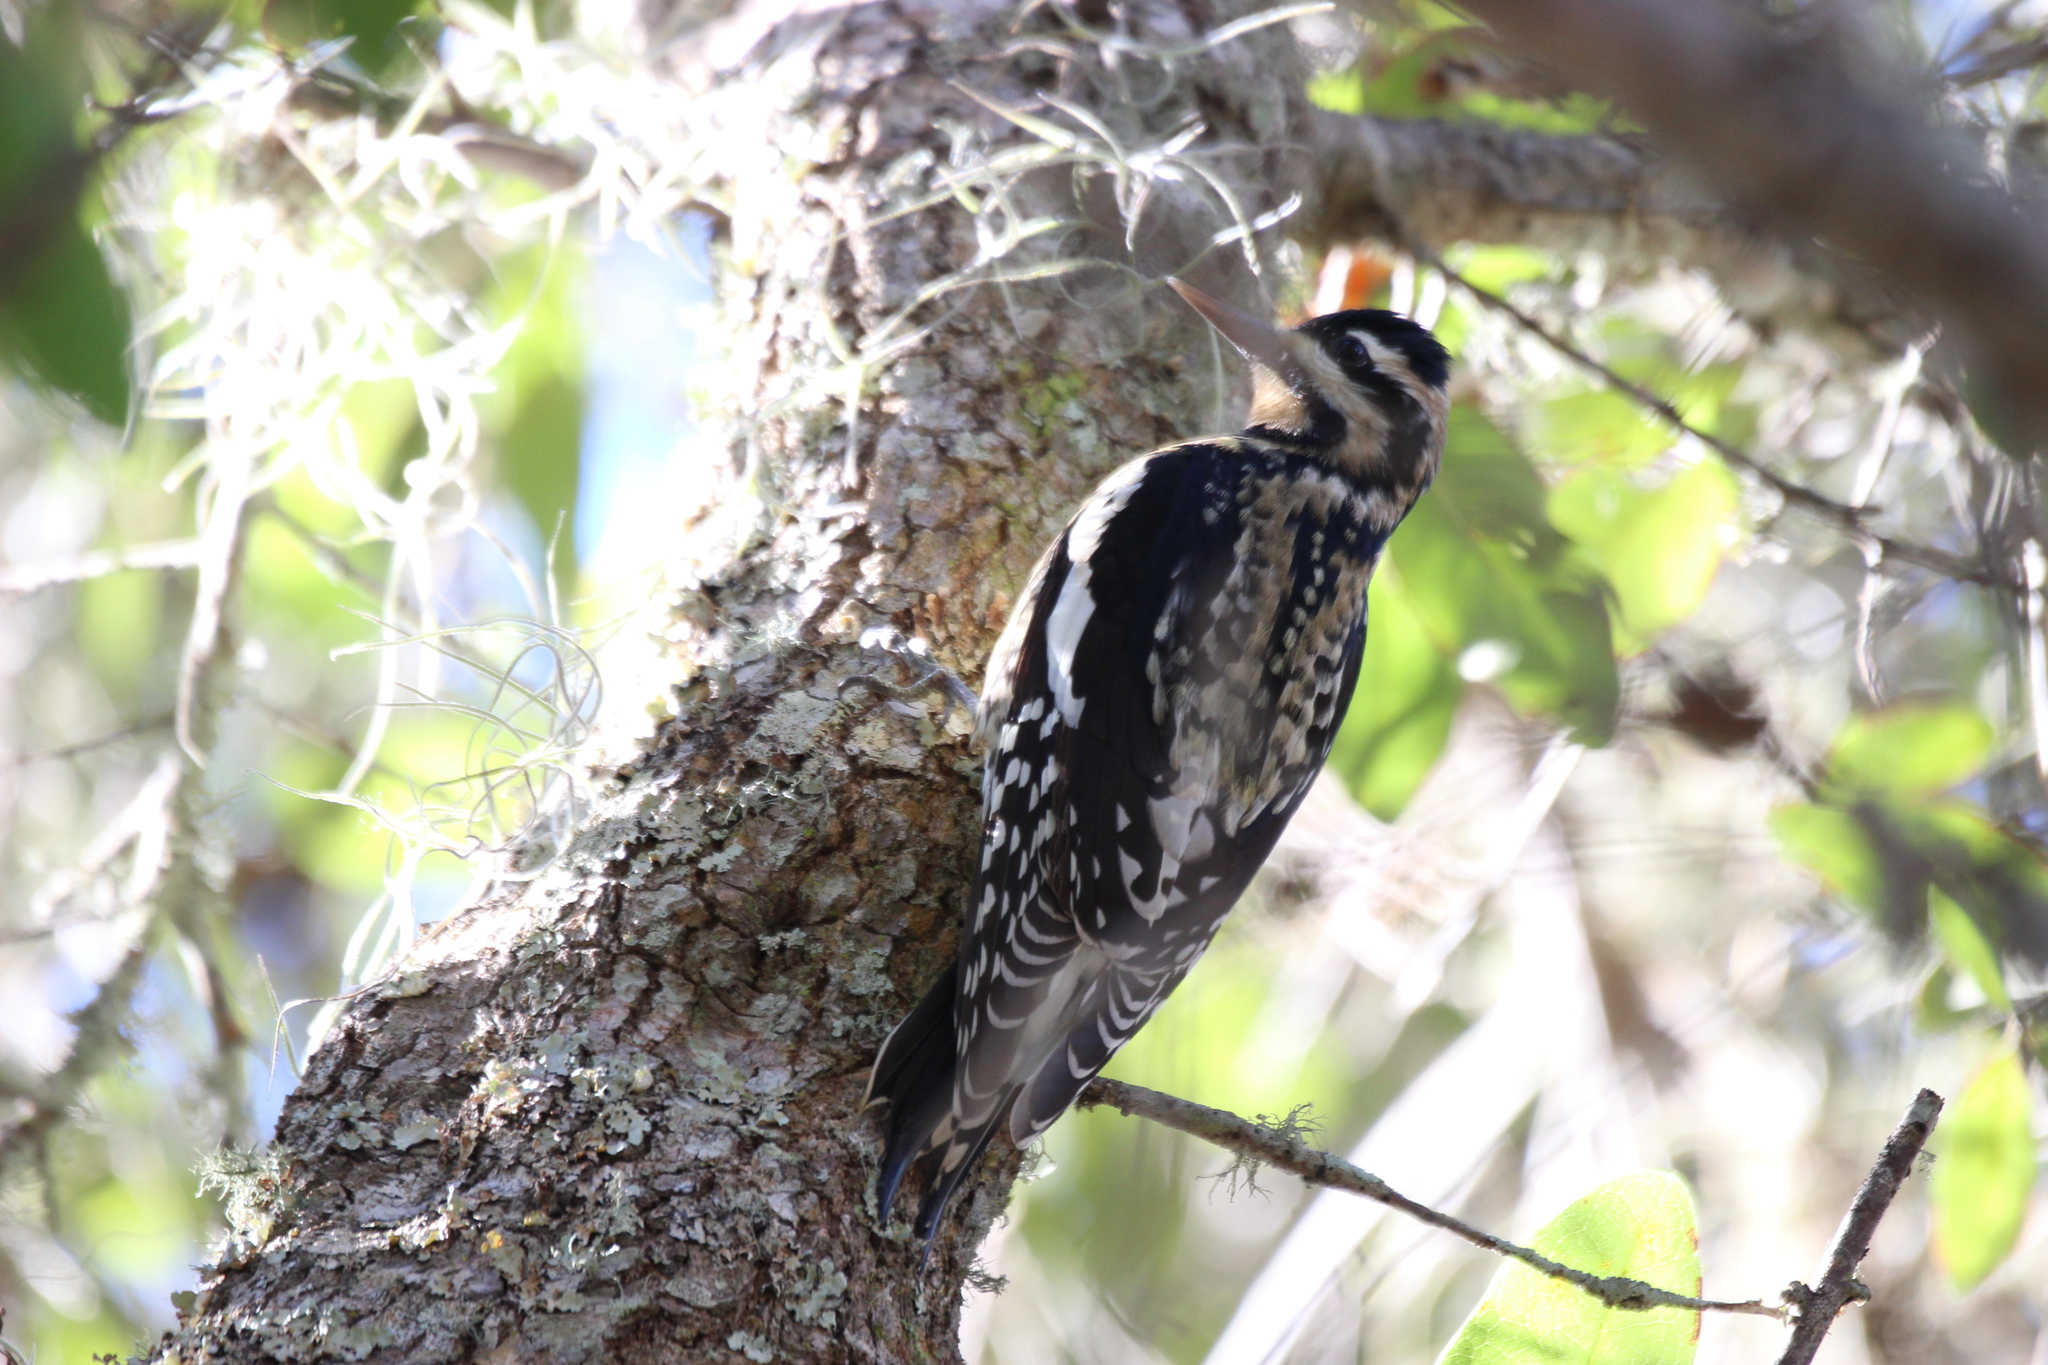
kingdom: Animalia
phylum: Chordata
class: Aves
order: Piciformes
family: Picidae
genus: Sphyrapicus
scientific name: Sphyrapicus varius
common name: Yellow-bellied sapsucker
